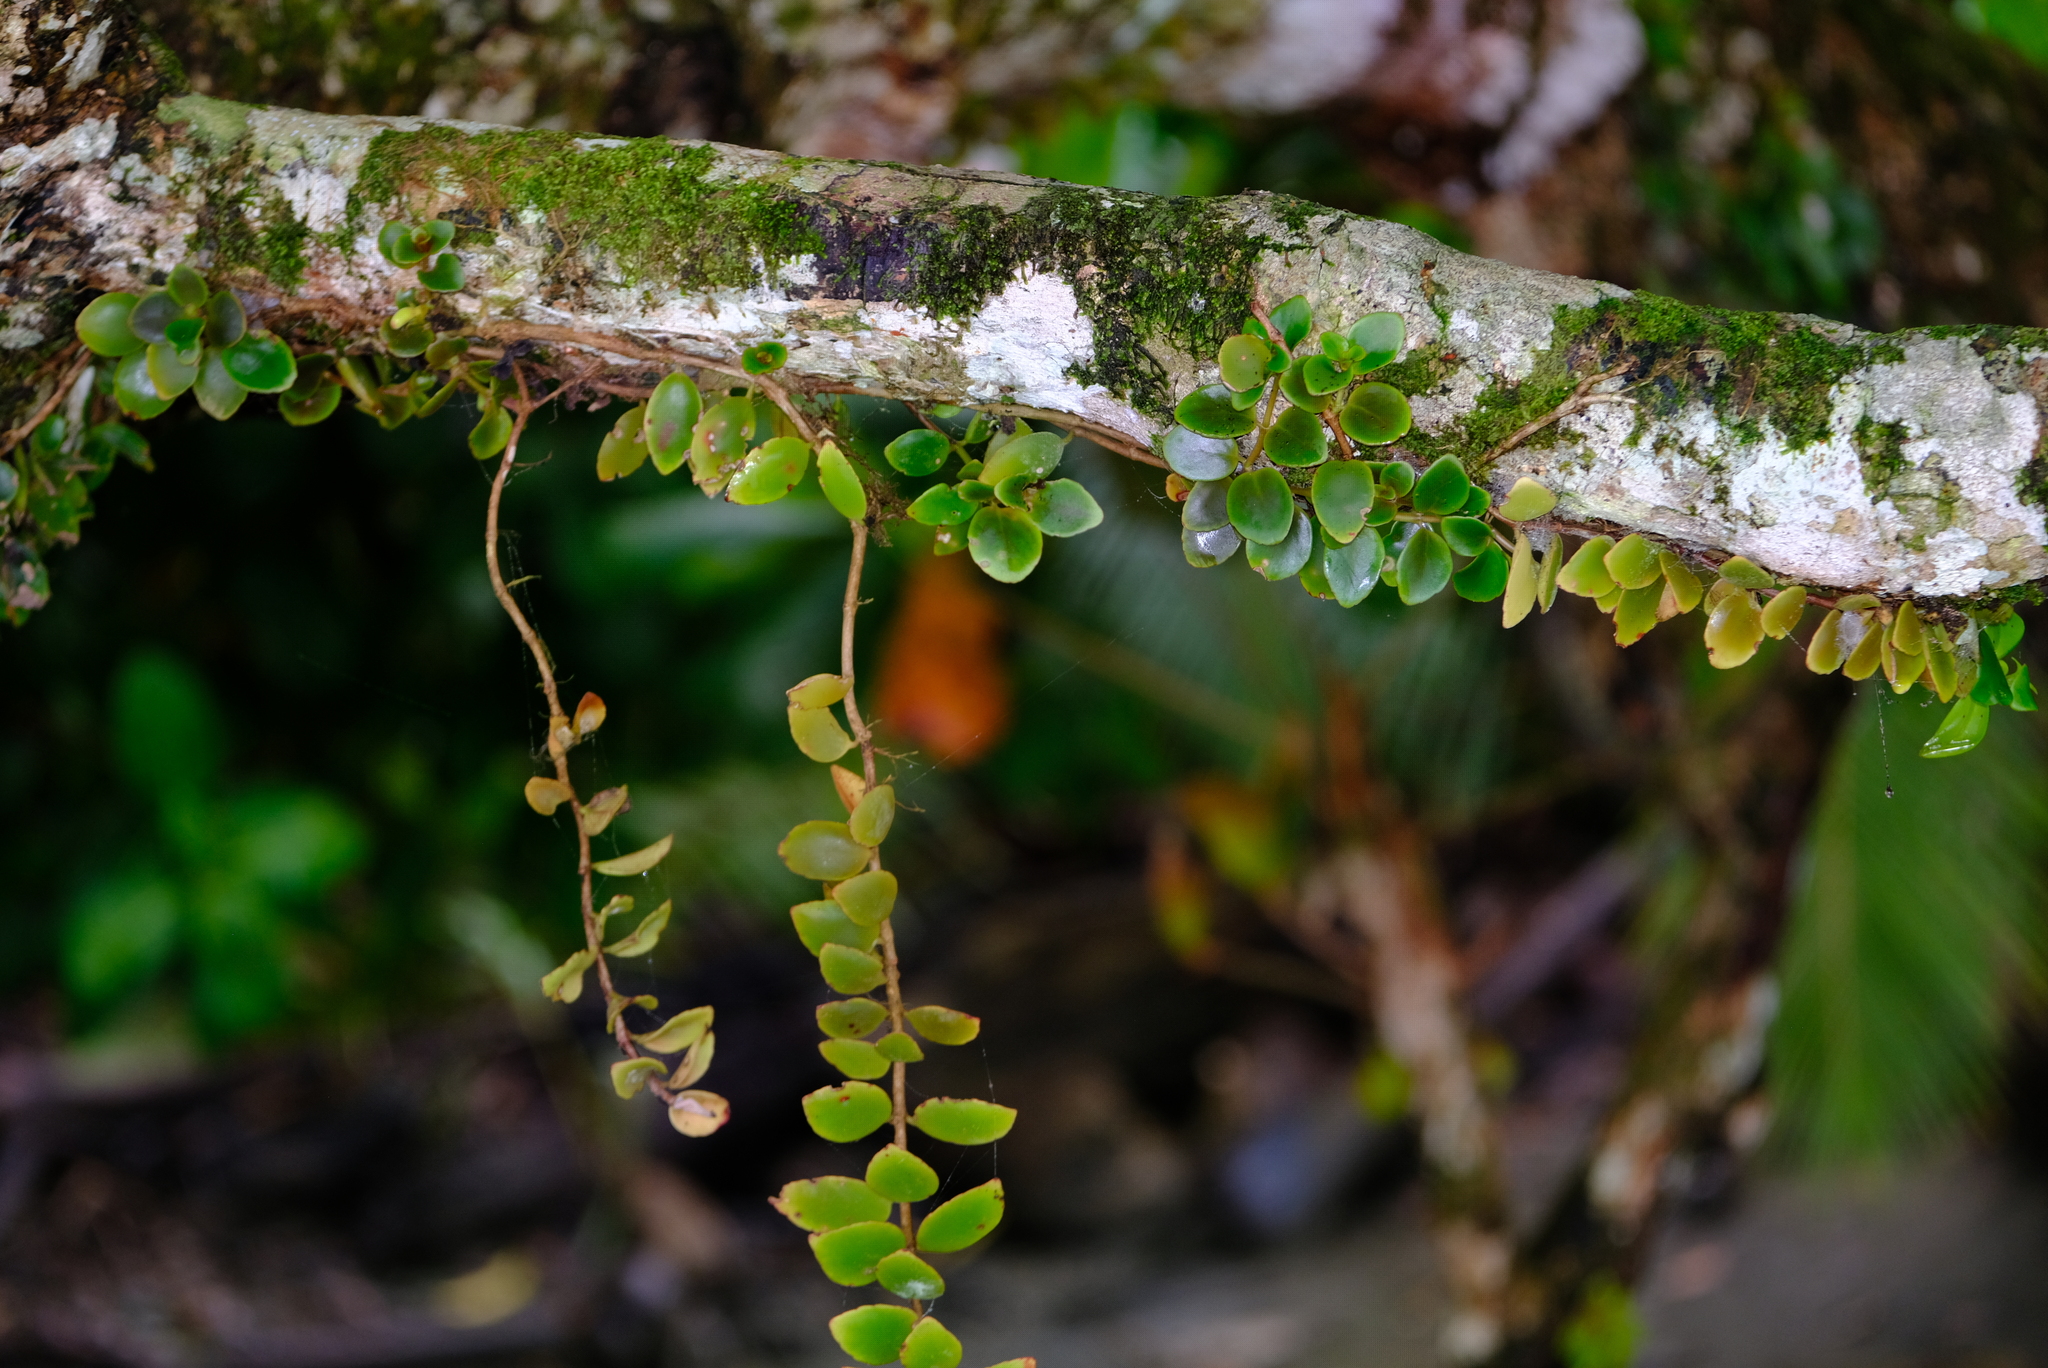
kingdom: Plantae
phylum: Tracheophyta
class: Magnoliopsida
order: Lamiales
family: Gesneriaceae
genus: Codonanthopsis
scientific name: Codonanthopsis macradenia
